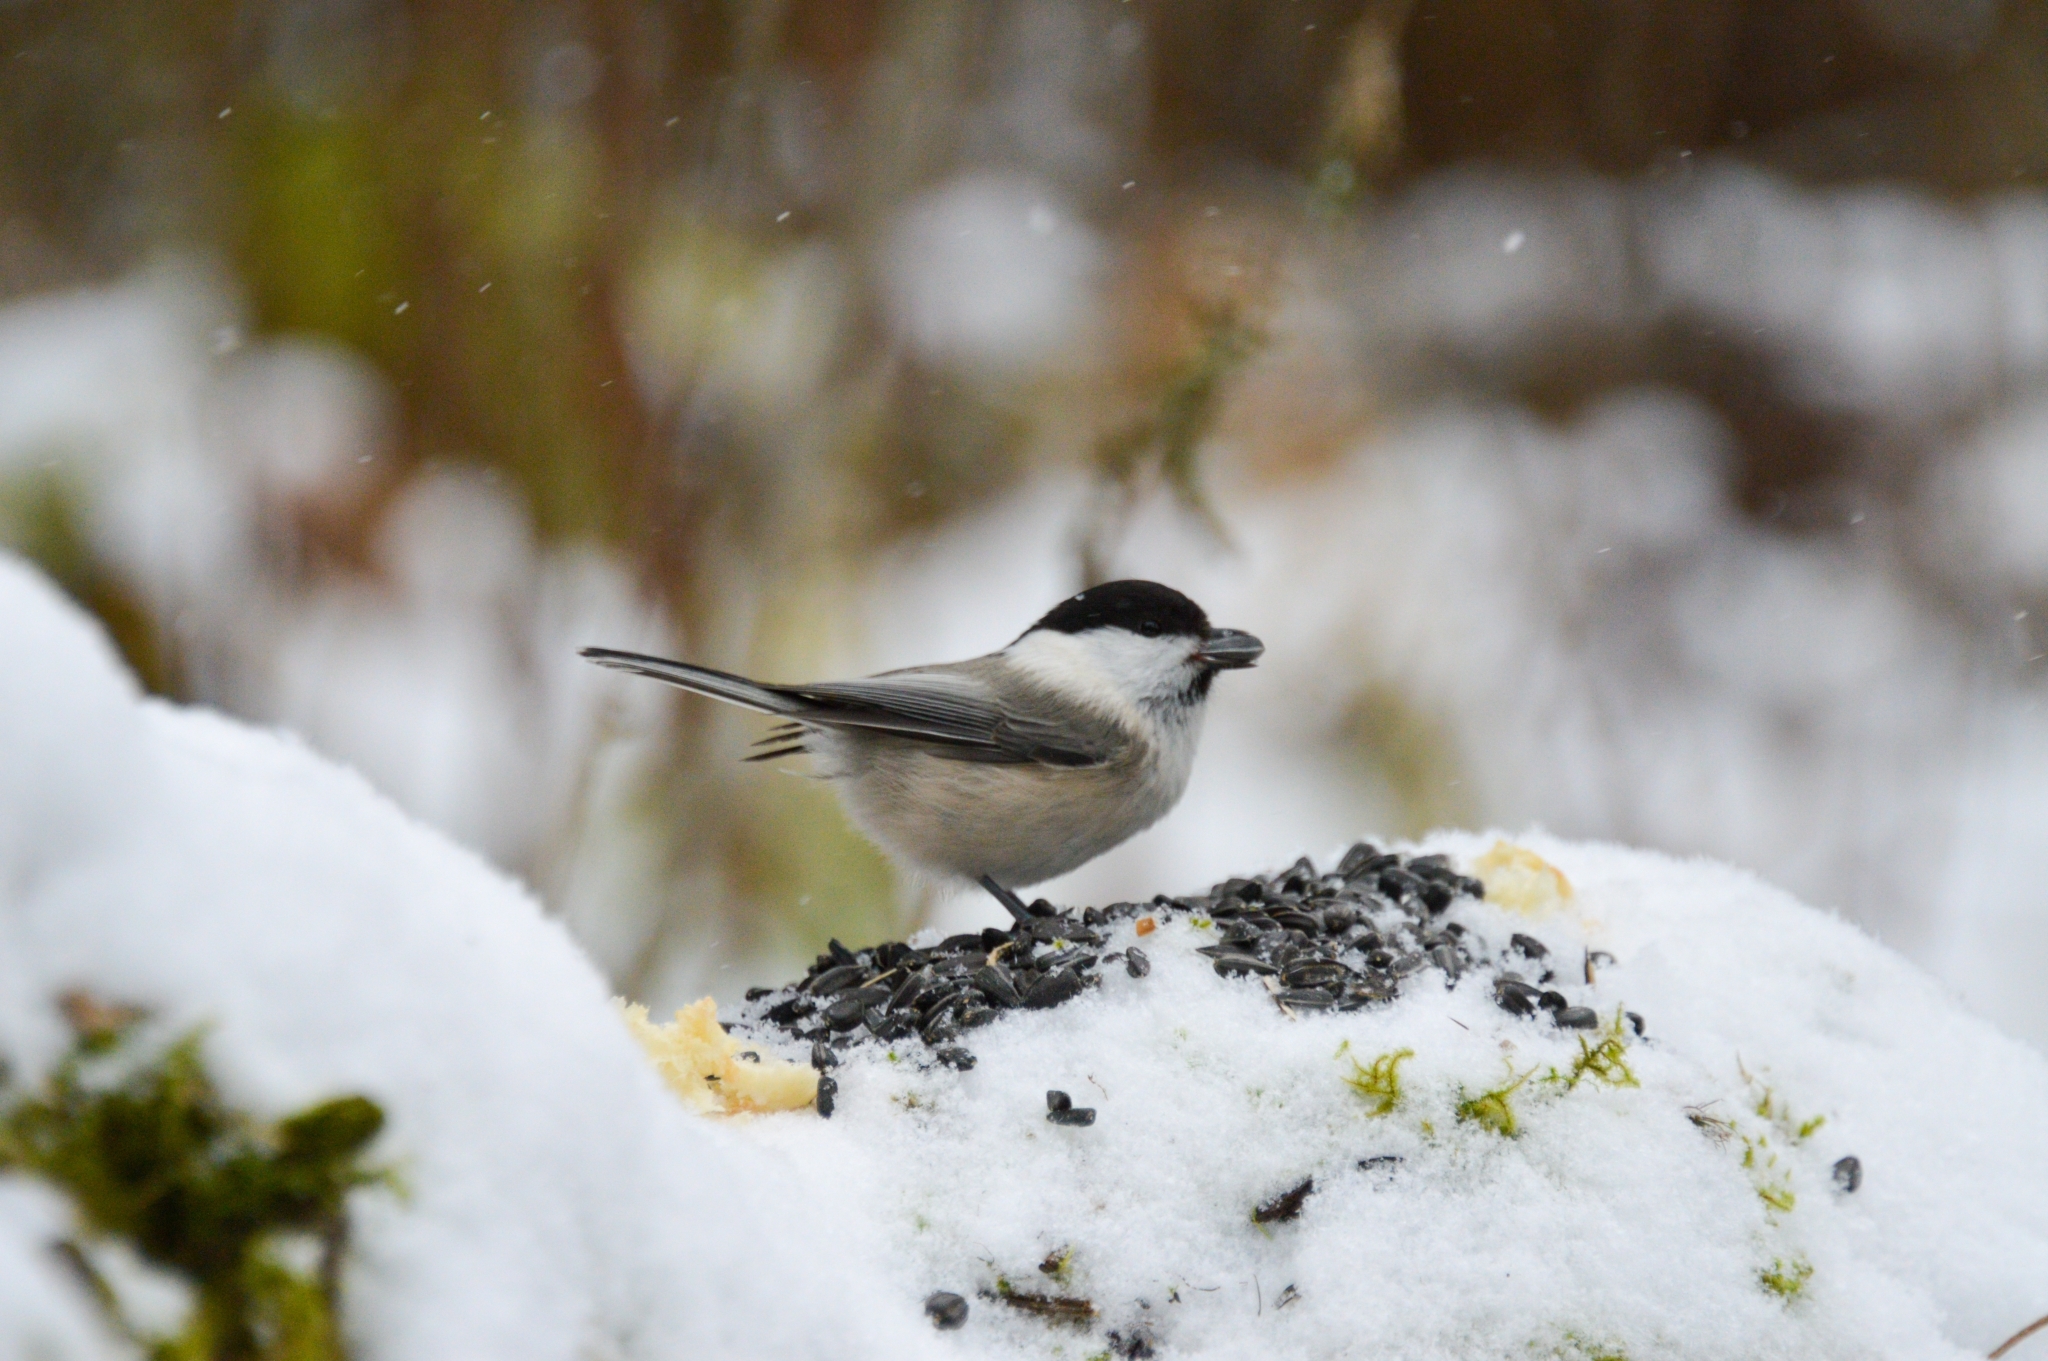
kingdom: Animalia
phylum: Chordata
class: Aves
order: Passeriformes
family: Paridae
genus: Poecile
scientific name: Poecile montanus
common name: Willow tit
